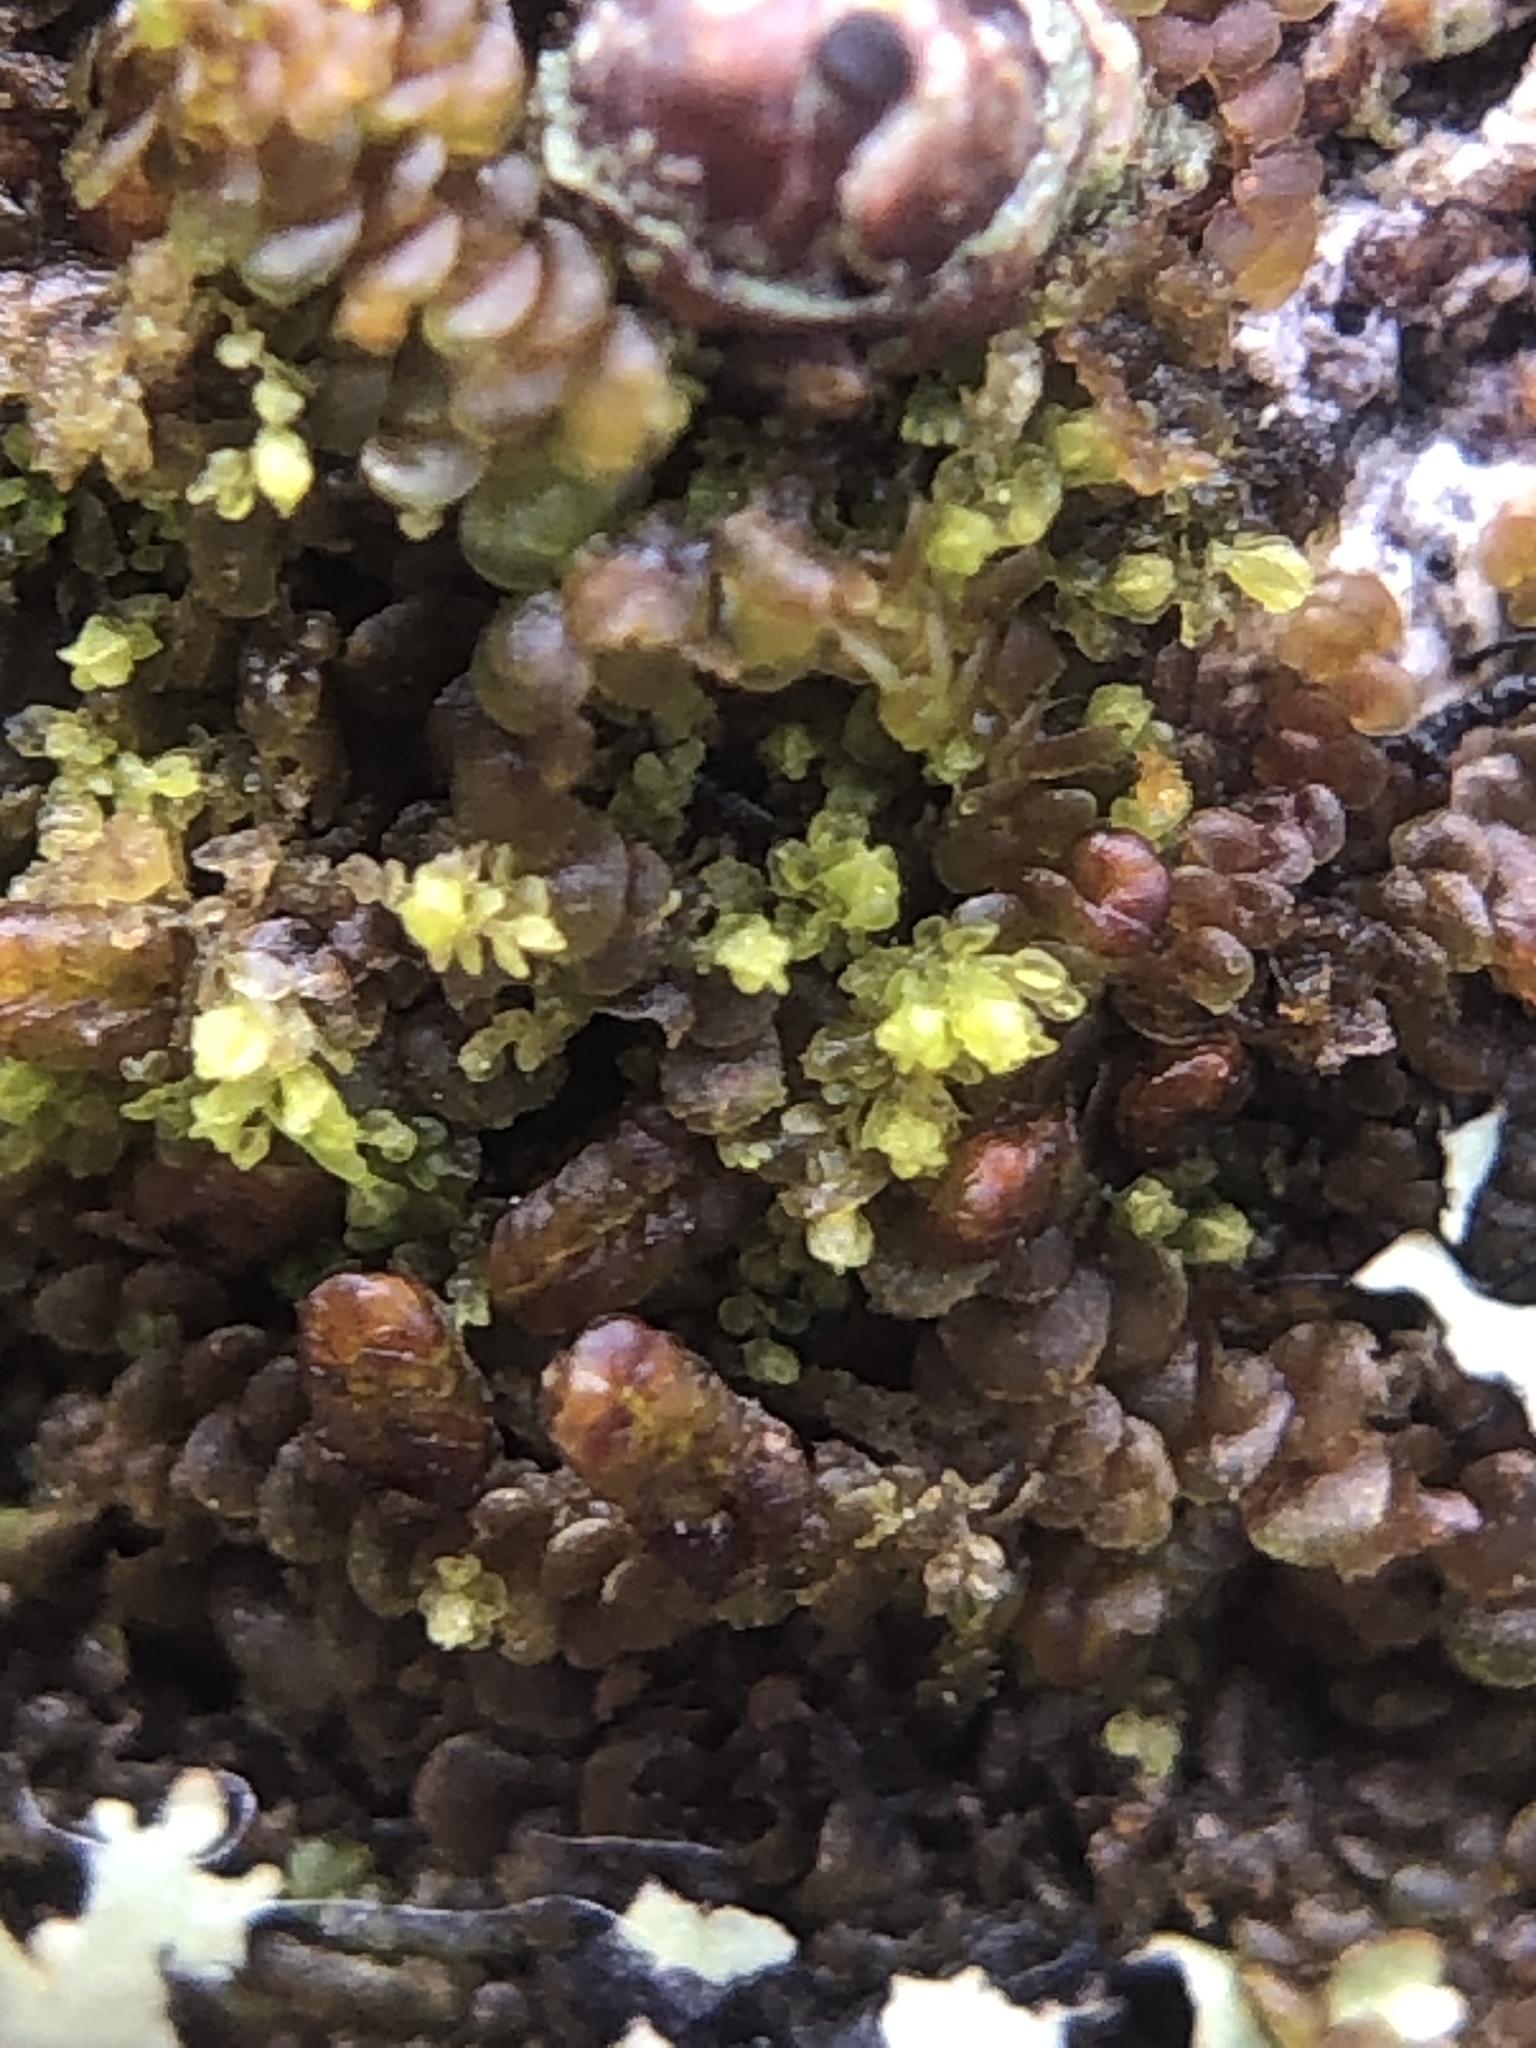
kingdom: Plantae
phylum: Marchantiophyta
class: Jungermanniopsida
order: Porellales
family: Lejeuneaceae
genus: Myriocoleopsis
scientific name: Myriocoleopsis minutissima
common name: Minute pouncewort
